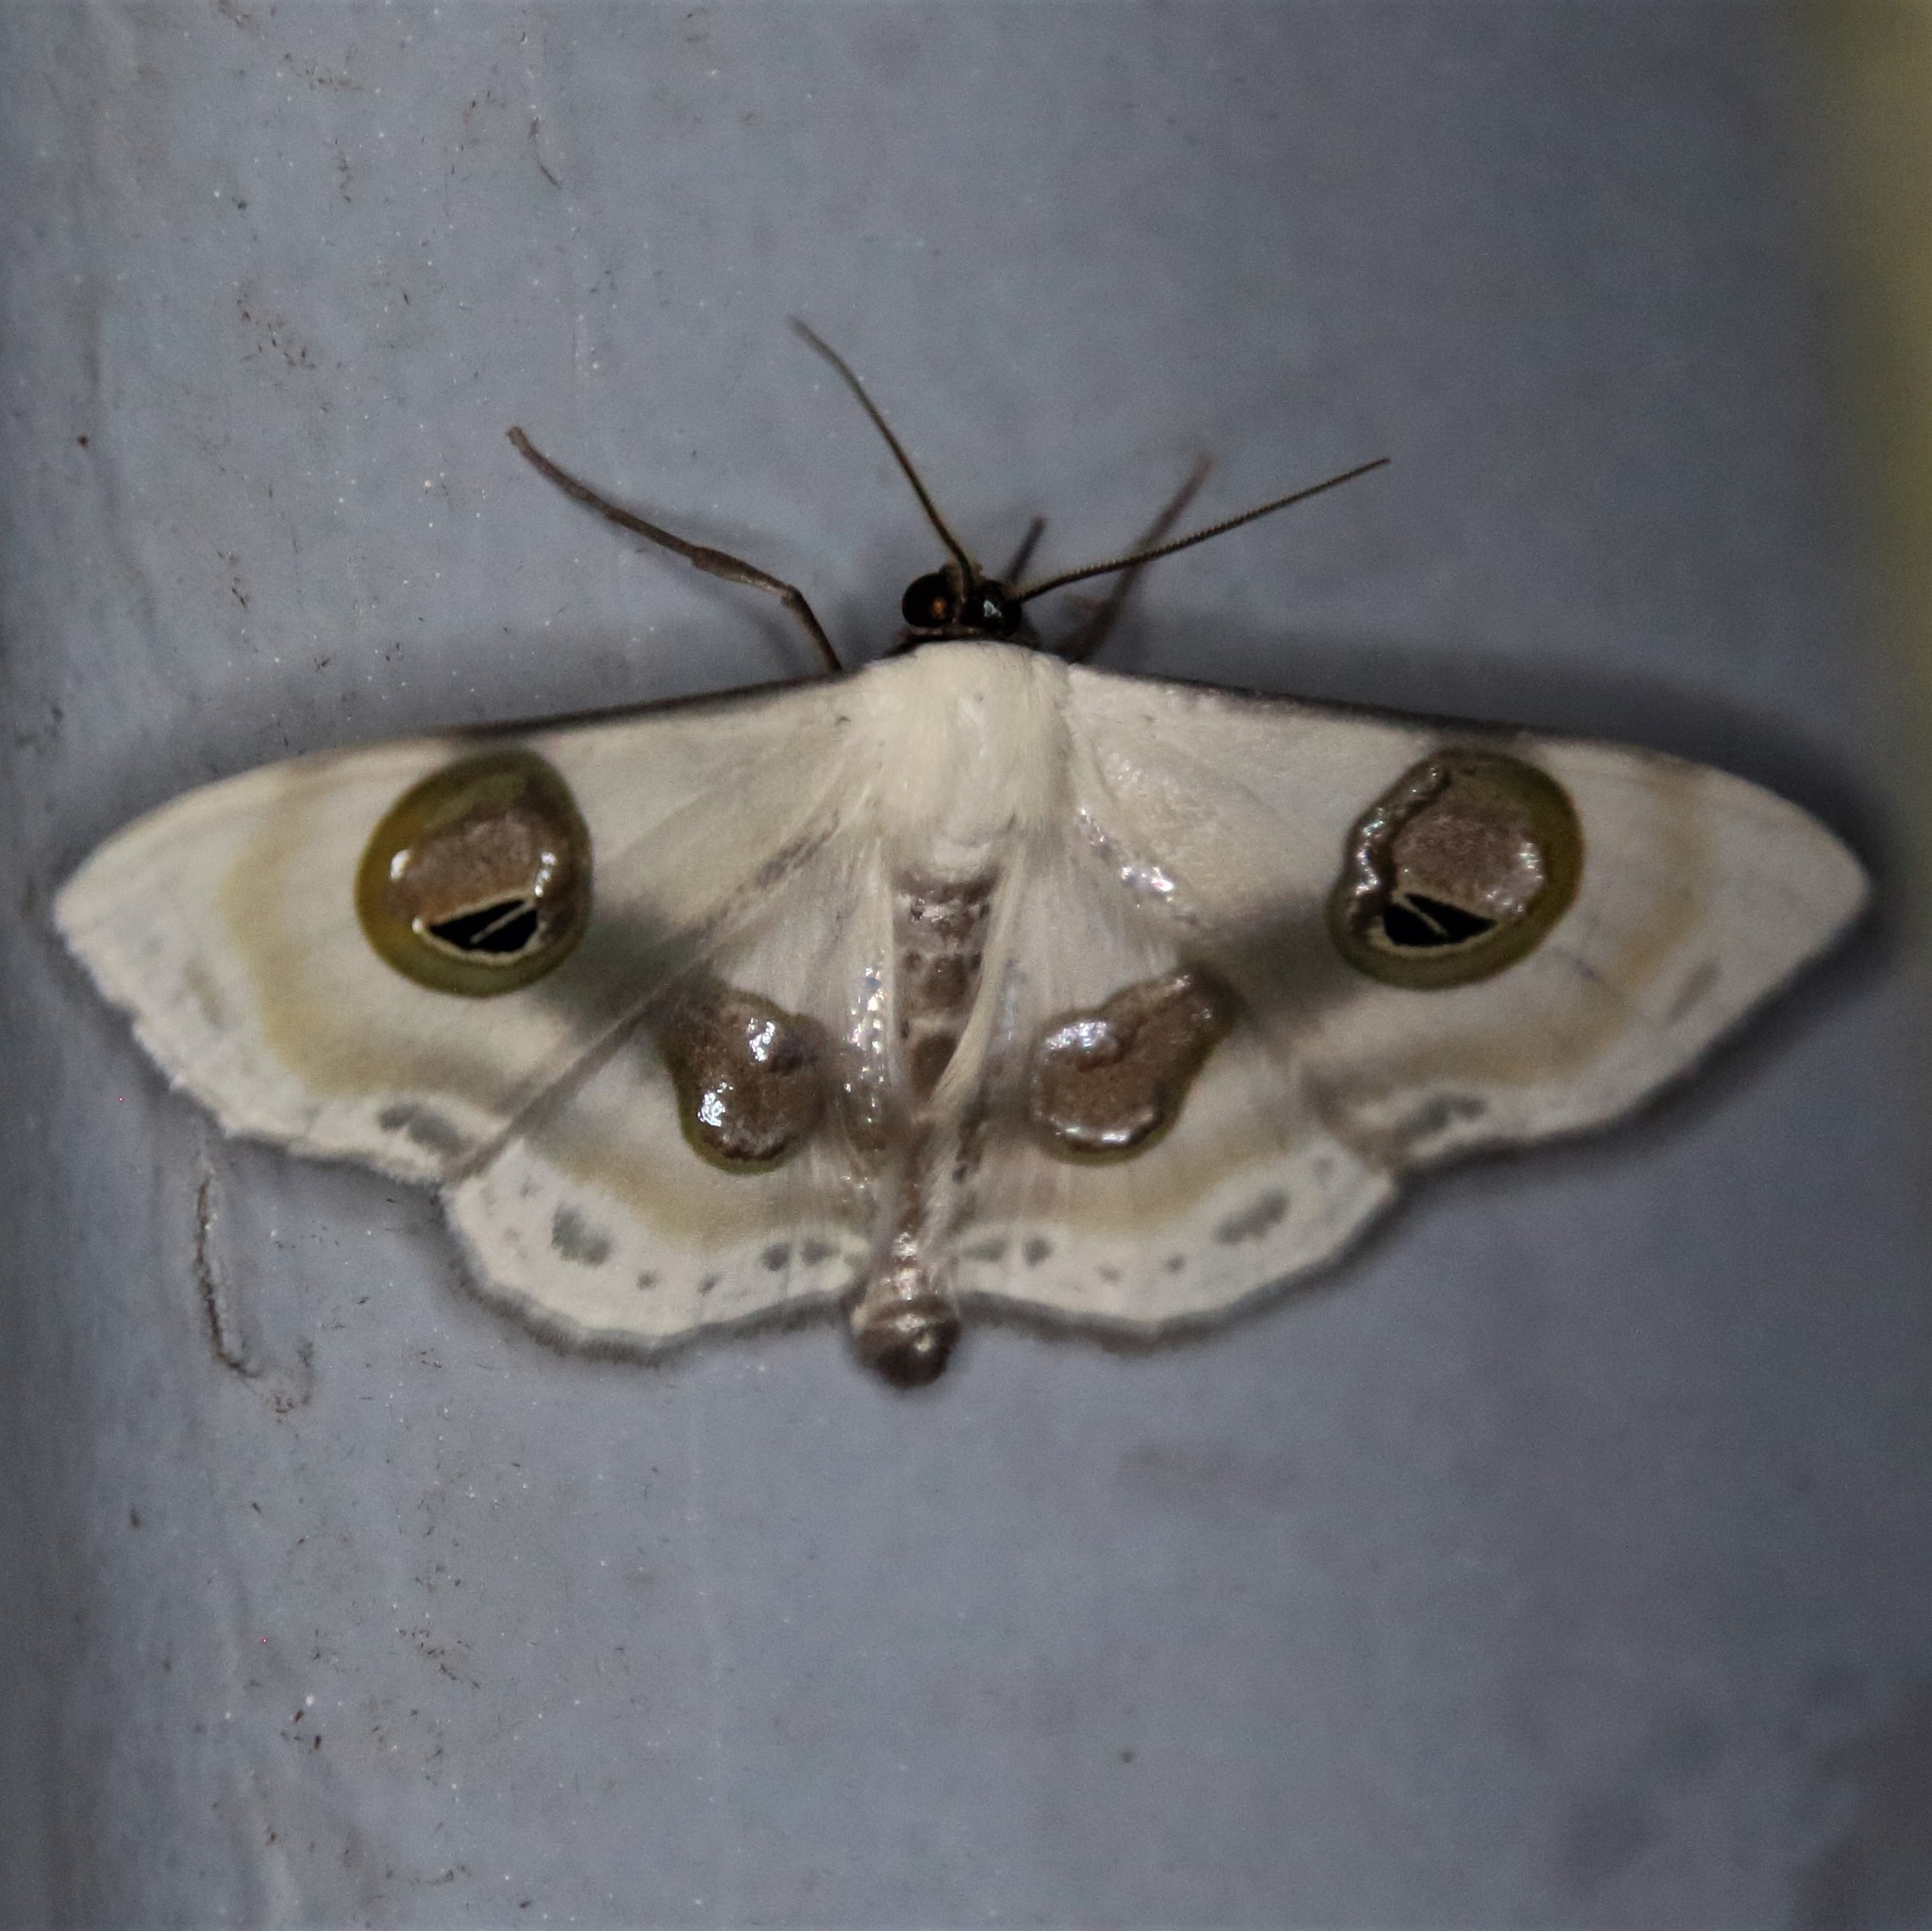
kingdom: Animalia
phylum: Arthropoda
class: Insecta
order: Lepidoptera
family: Geometridae
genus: Problepsis
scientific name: Problepsis conjunctiva
